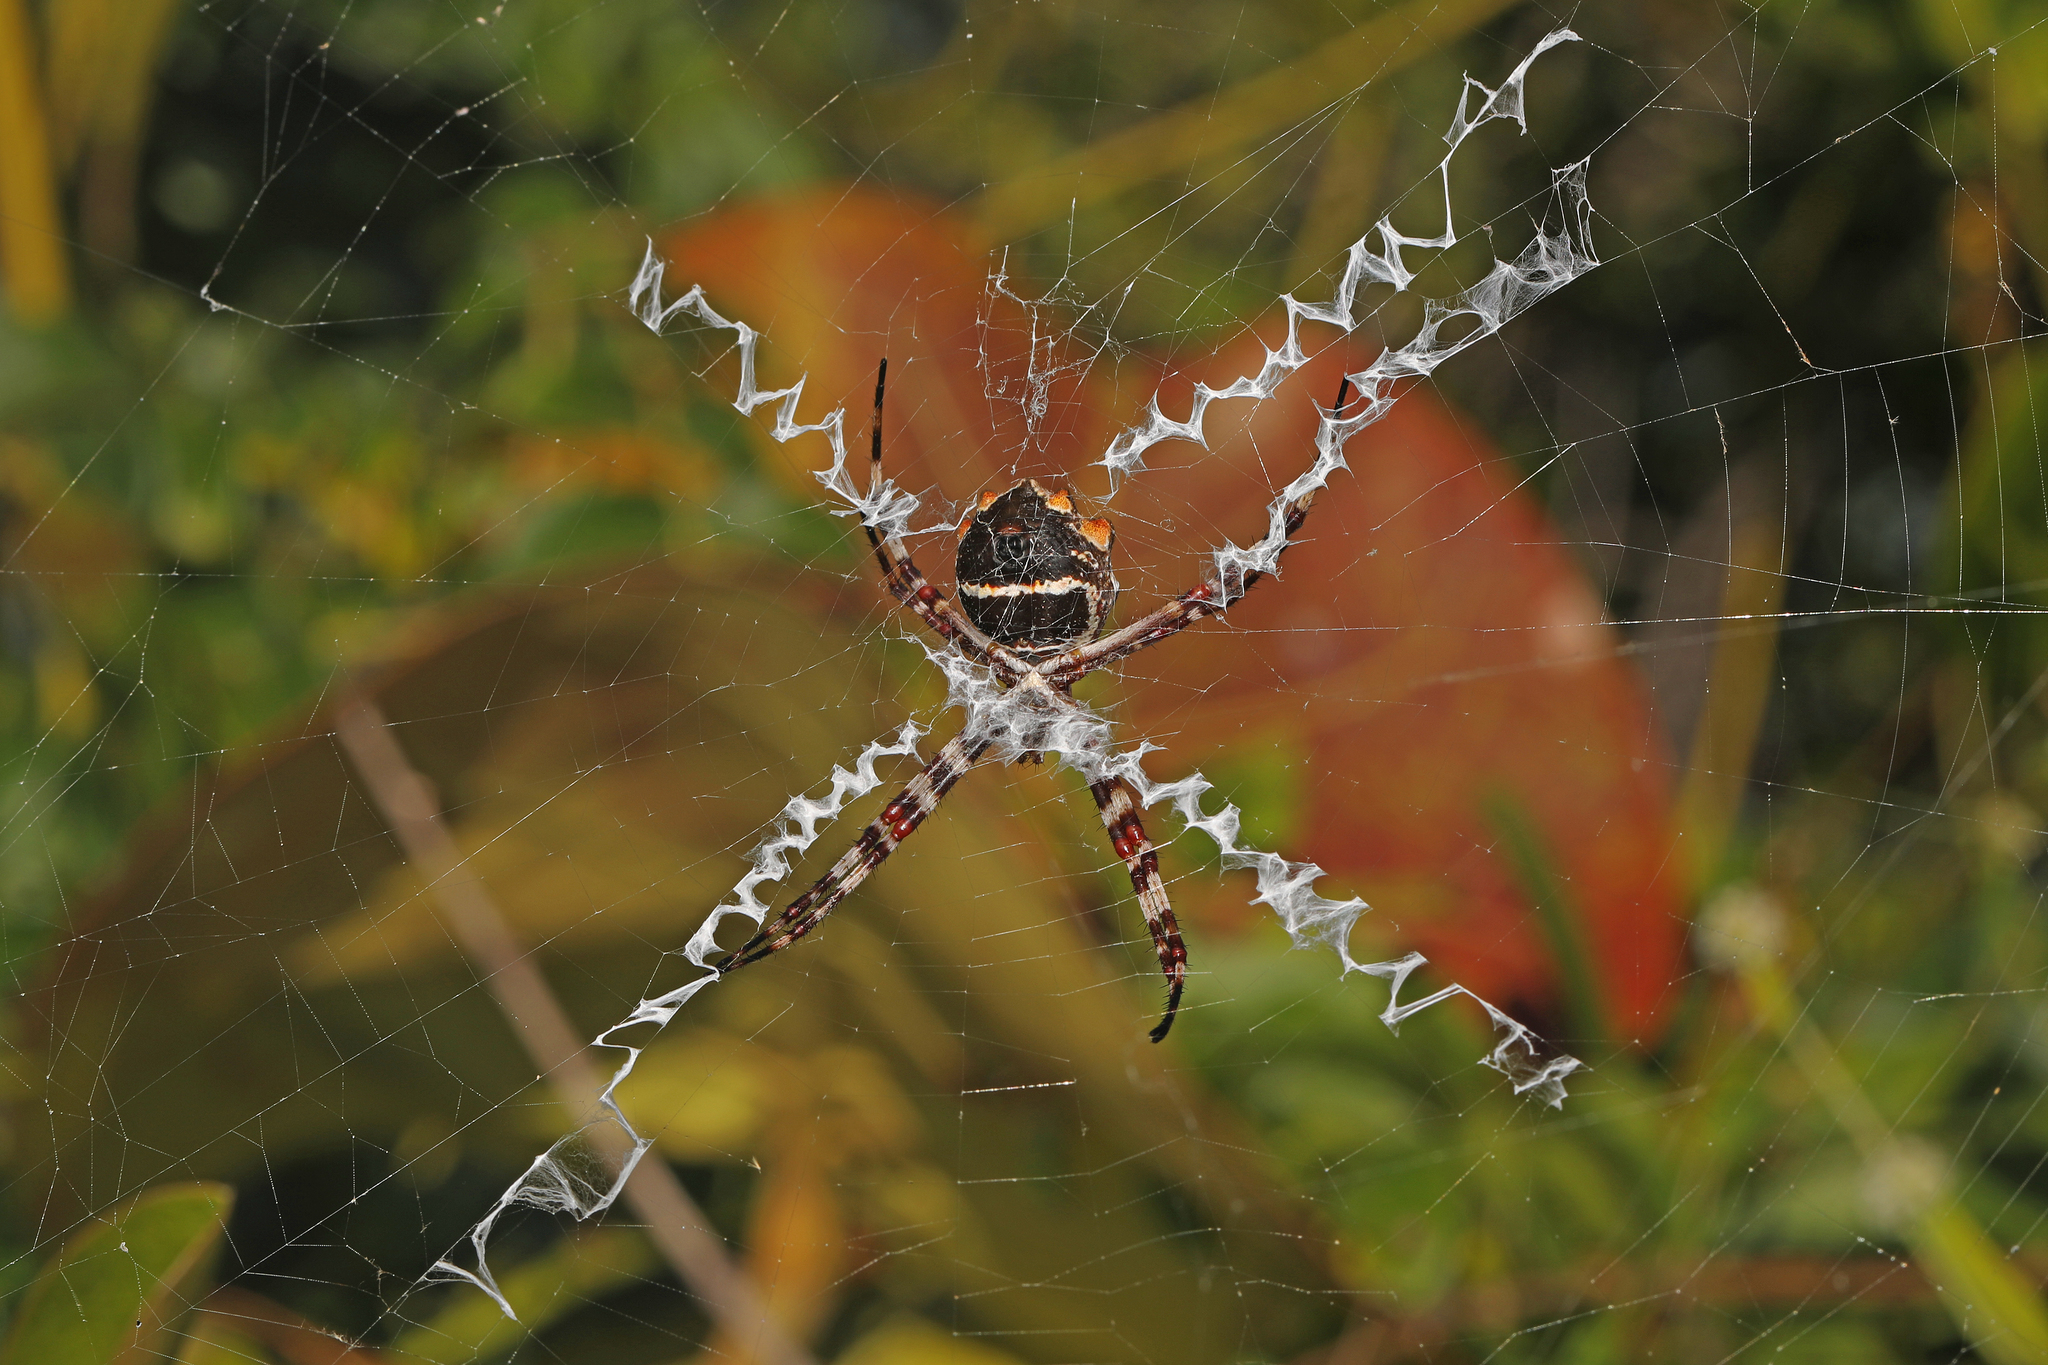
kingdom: Animalia
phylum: Arthropoda
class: Arachnida
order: Araneae
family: Araneidae
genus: Argiope
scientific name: Argiope argentata
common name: Orb weavers
